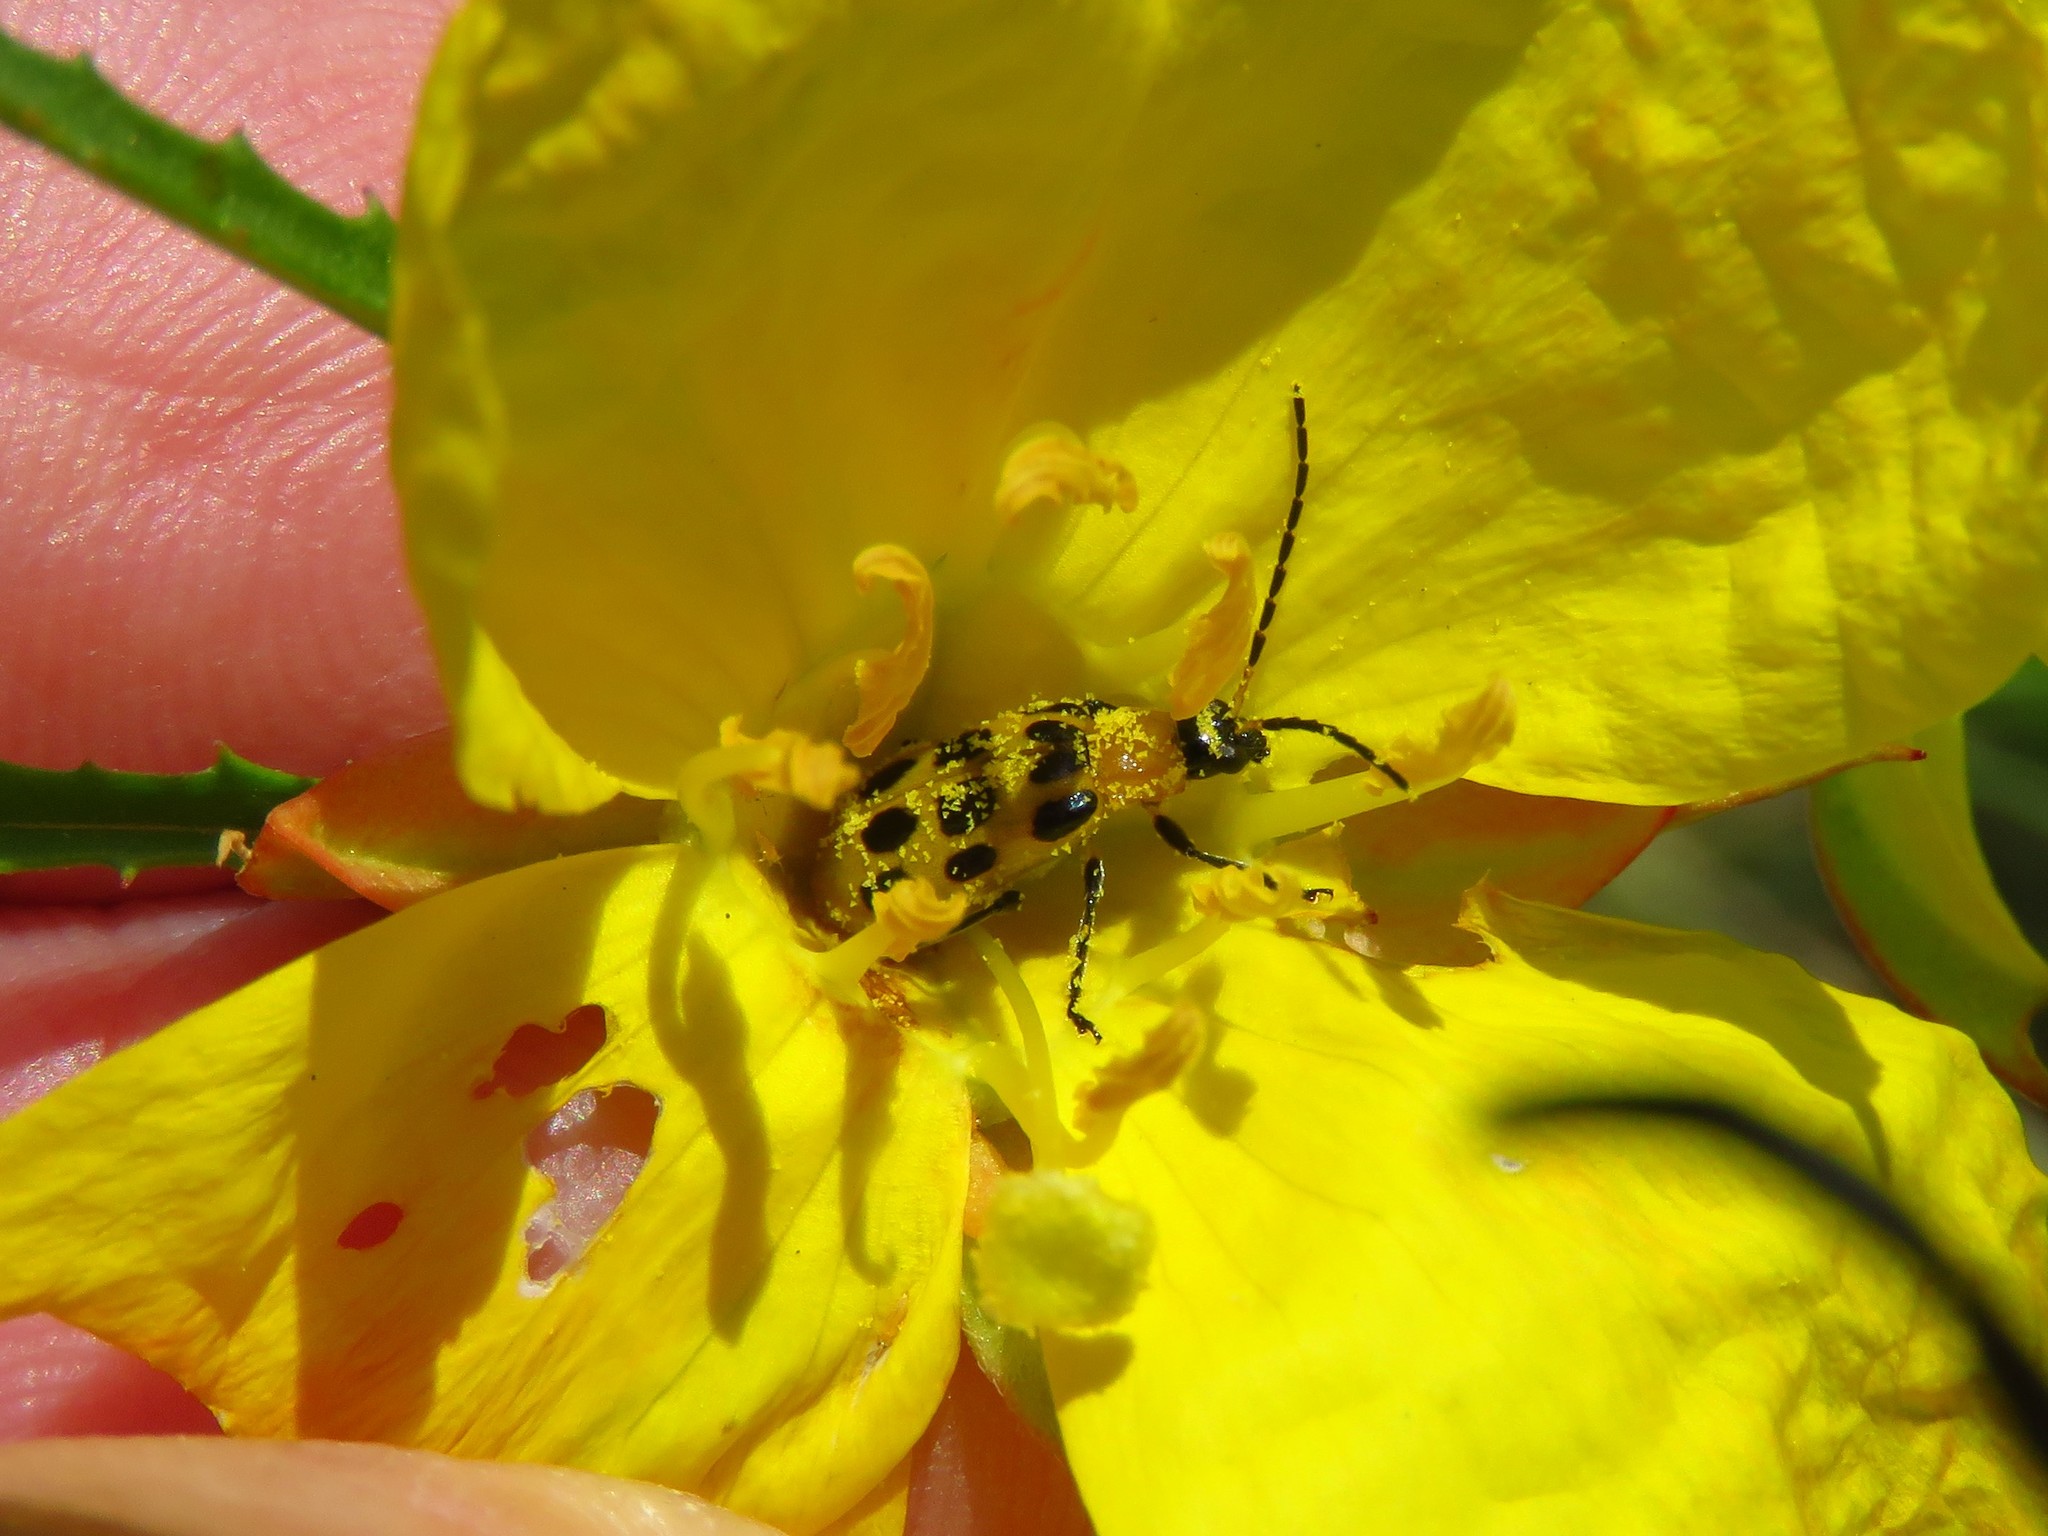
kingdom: Animalia
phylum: Arthropoda
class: Insecta
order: Coleoptera
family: Chrysomelidae
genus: Diabrotica
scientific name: Diabrotica undecimpunctata
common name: Spotted cucumber beetle
